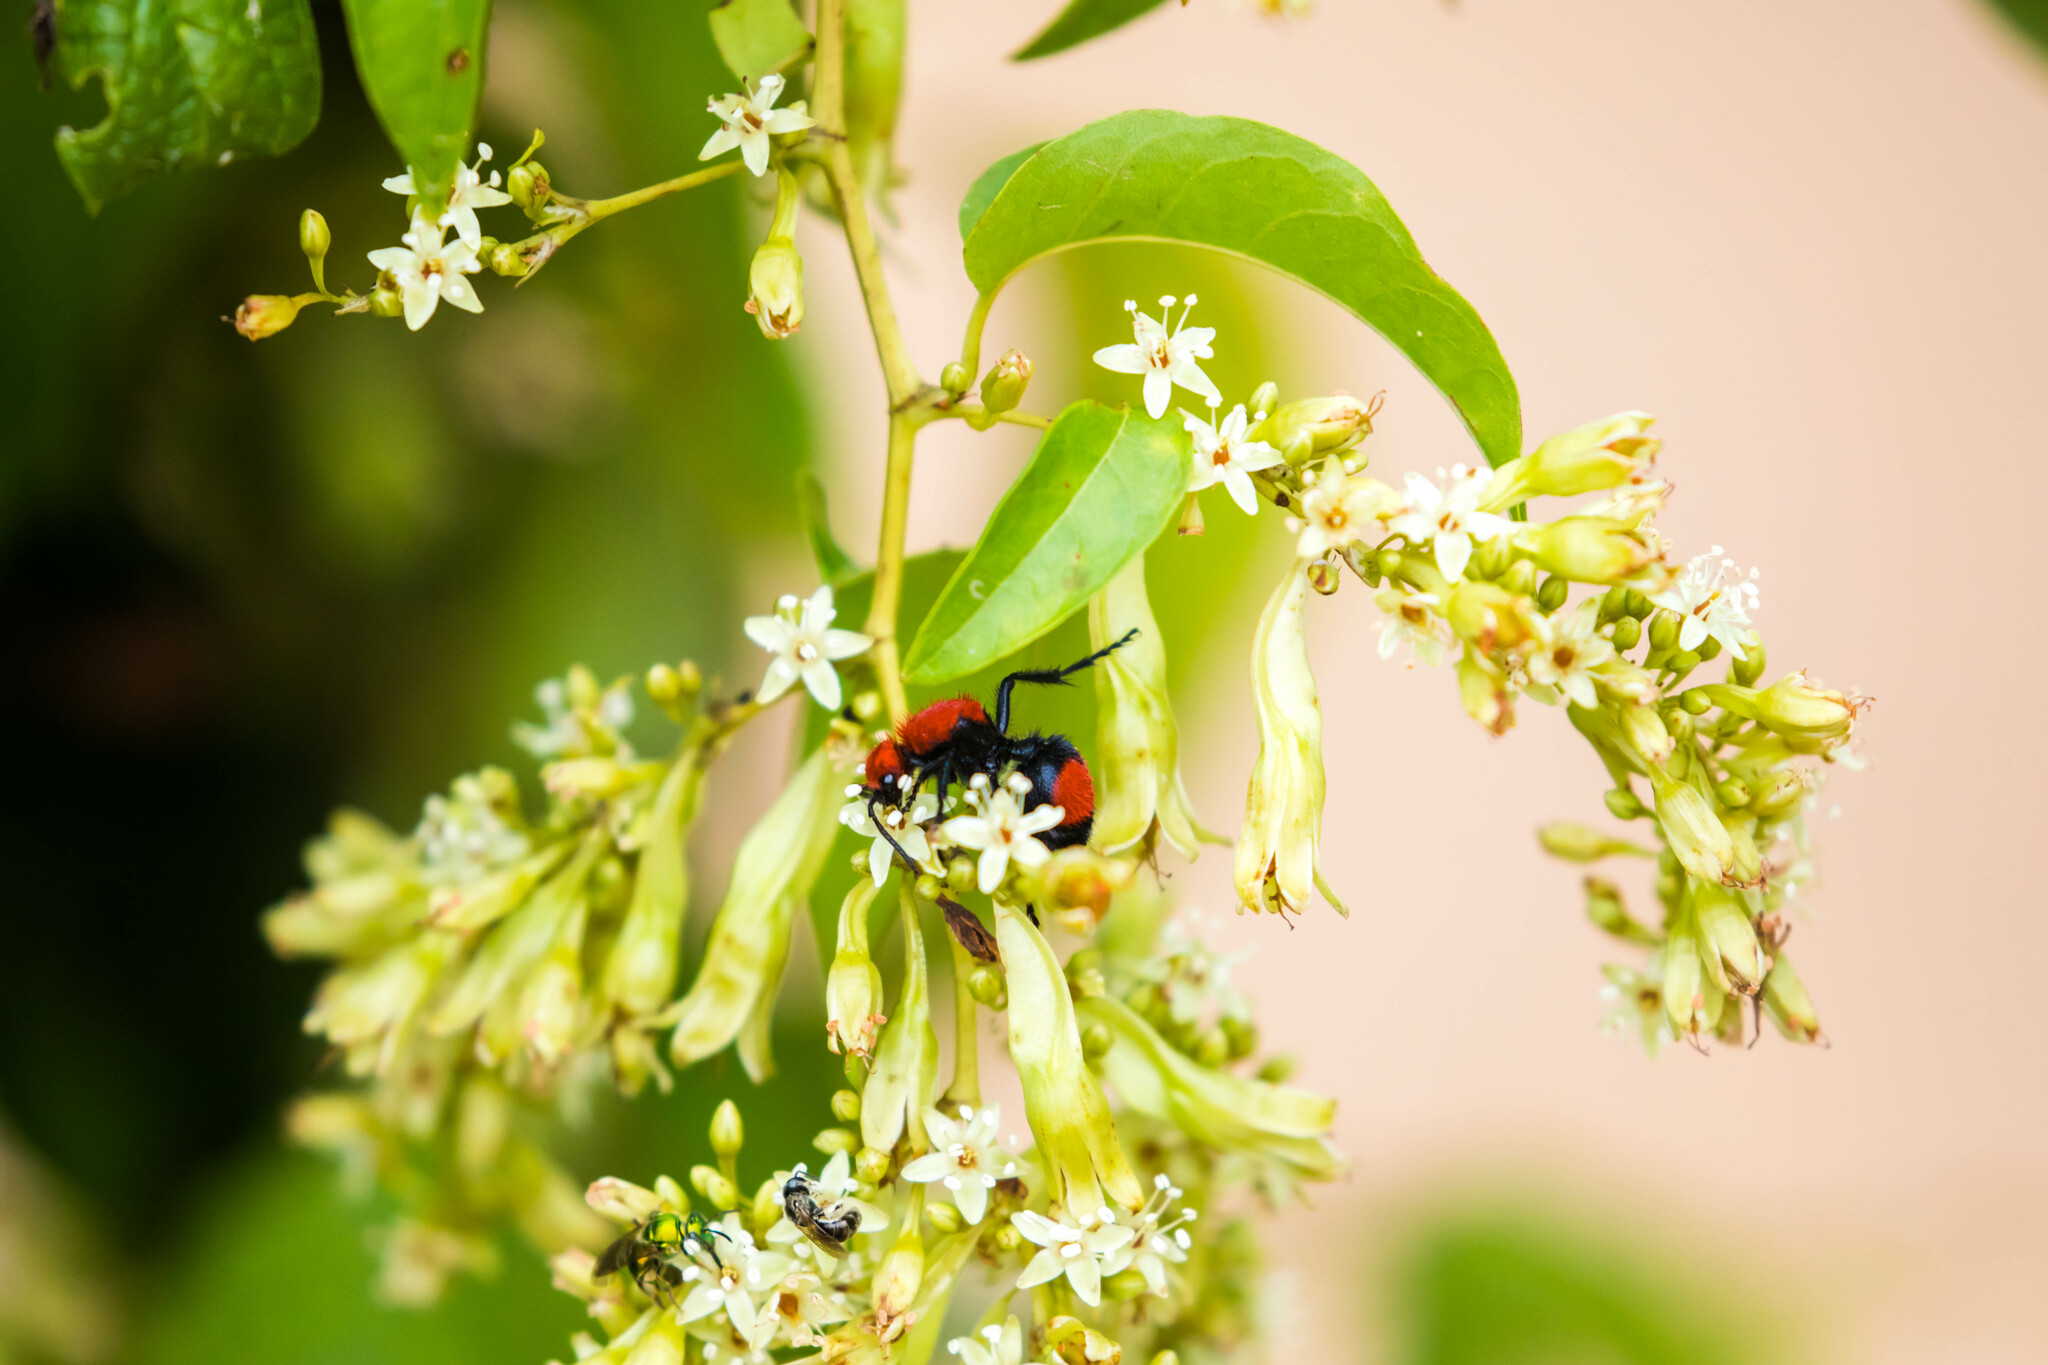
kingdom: Animalia
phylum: Arthropoda
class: Insecta
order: Hymenoptera
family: Mutillidae
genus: Dasymutilla
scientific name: Dasymutilla occidentalis
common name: Common eastern velvet ant
